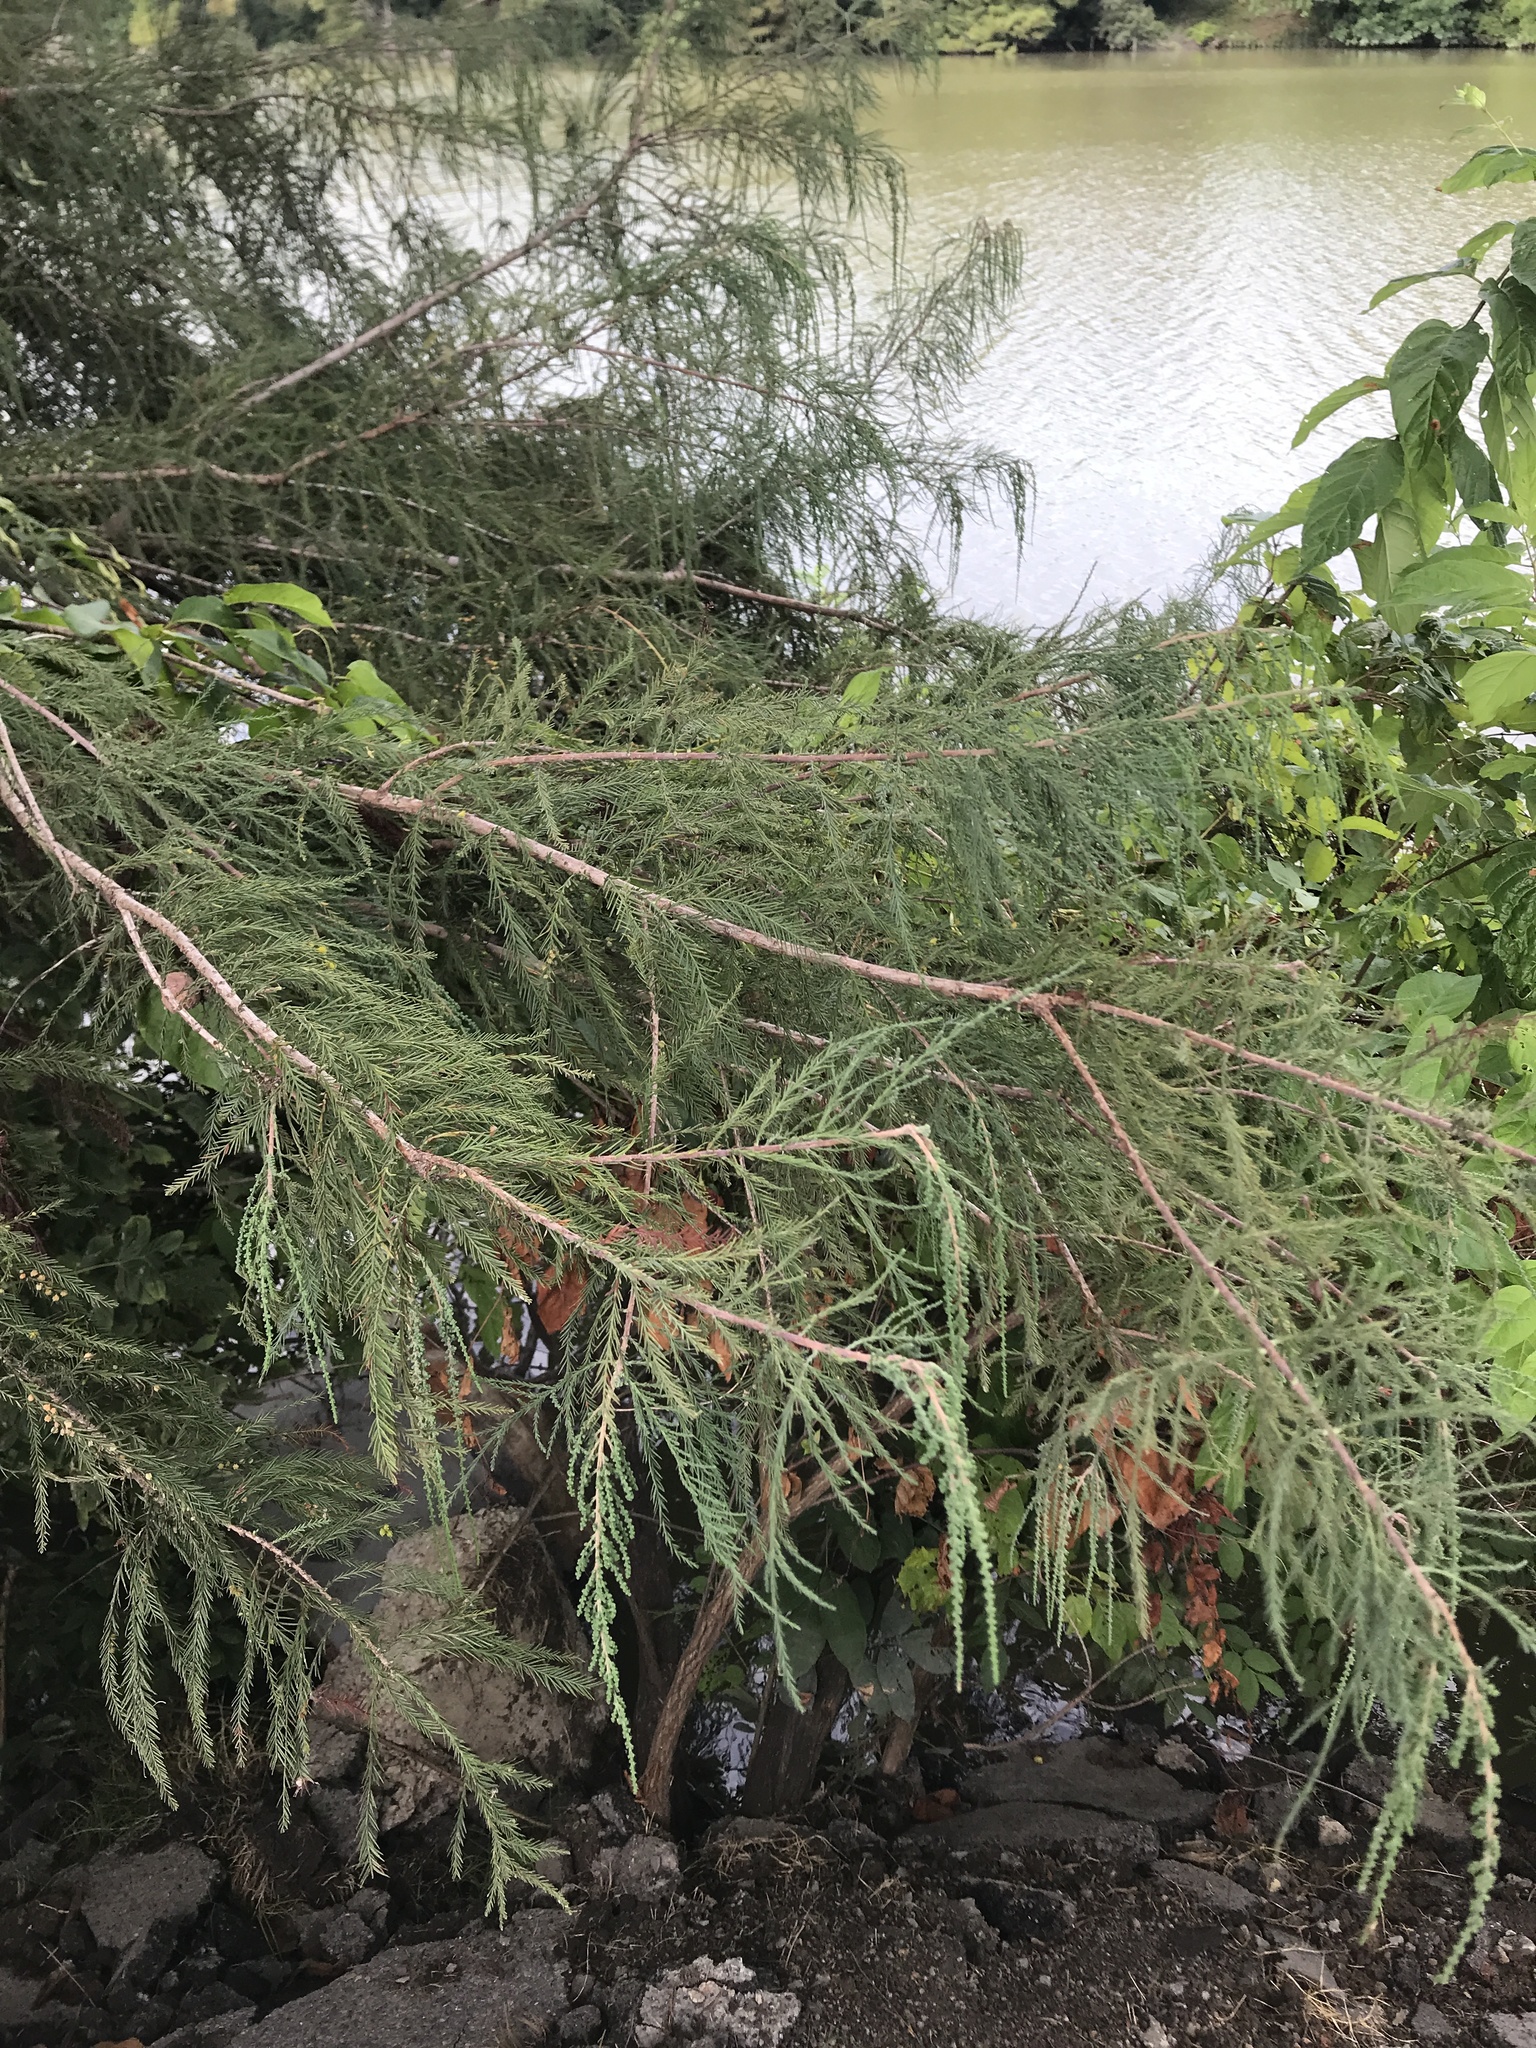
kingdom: Plantae
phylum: Tracheophyta
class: Pinopsida
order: Pinales
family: Cupressaceae
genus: Taxodium
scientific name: Taxodium distichum
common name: Bald cypress
